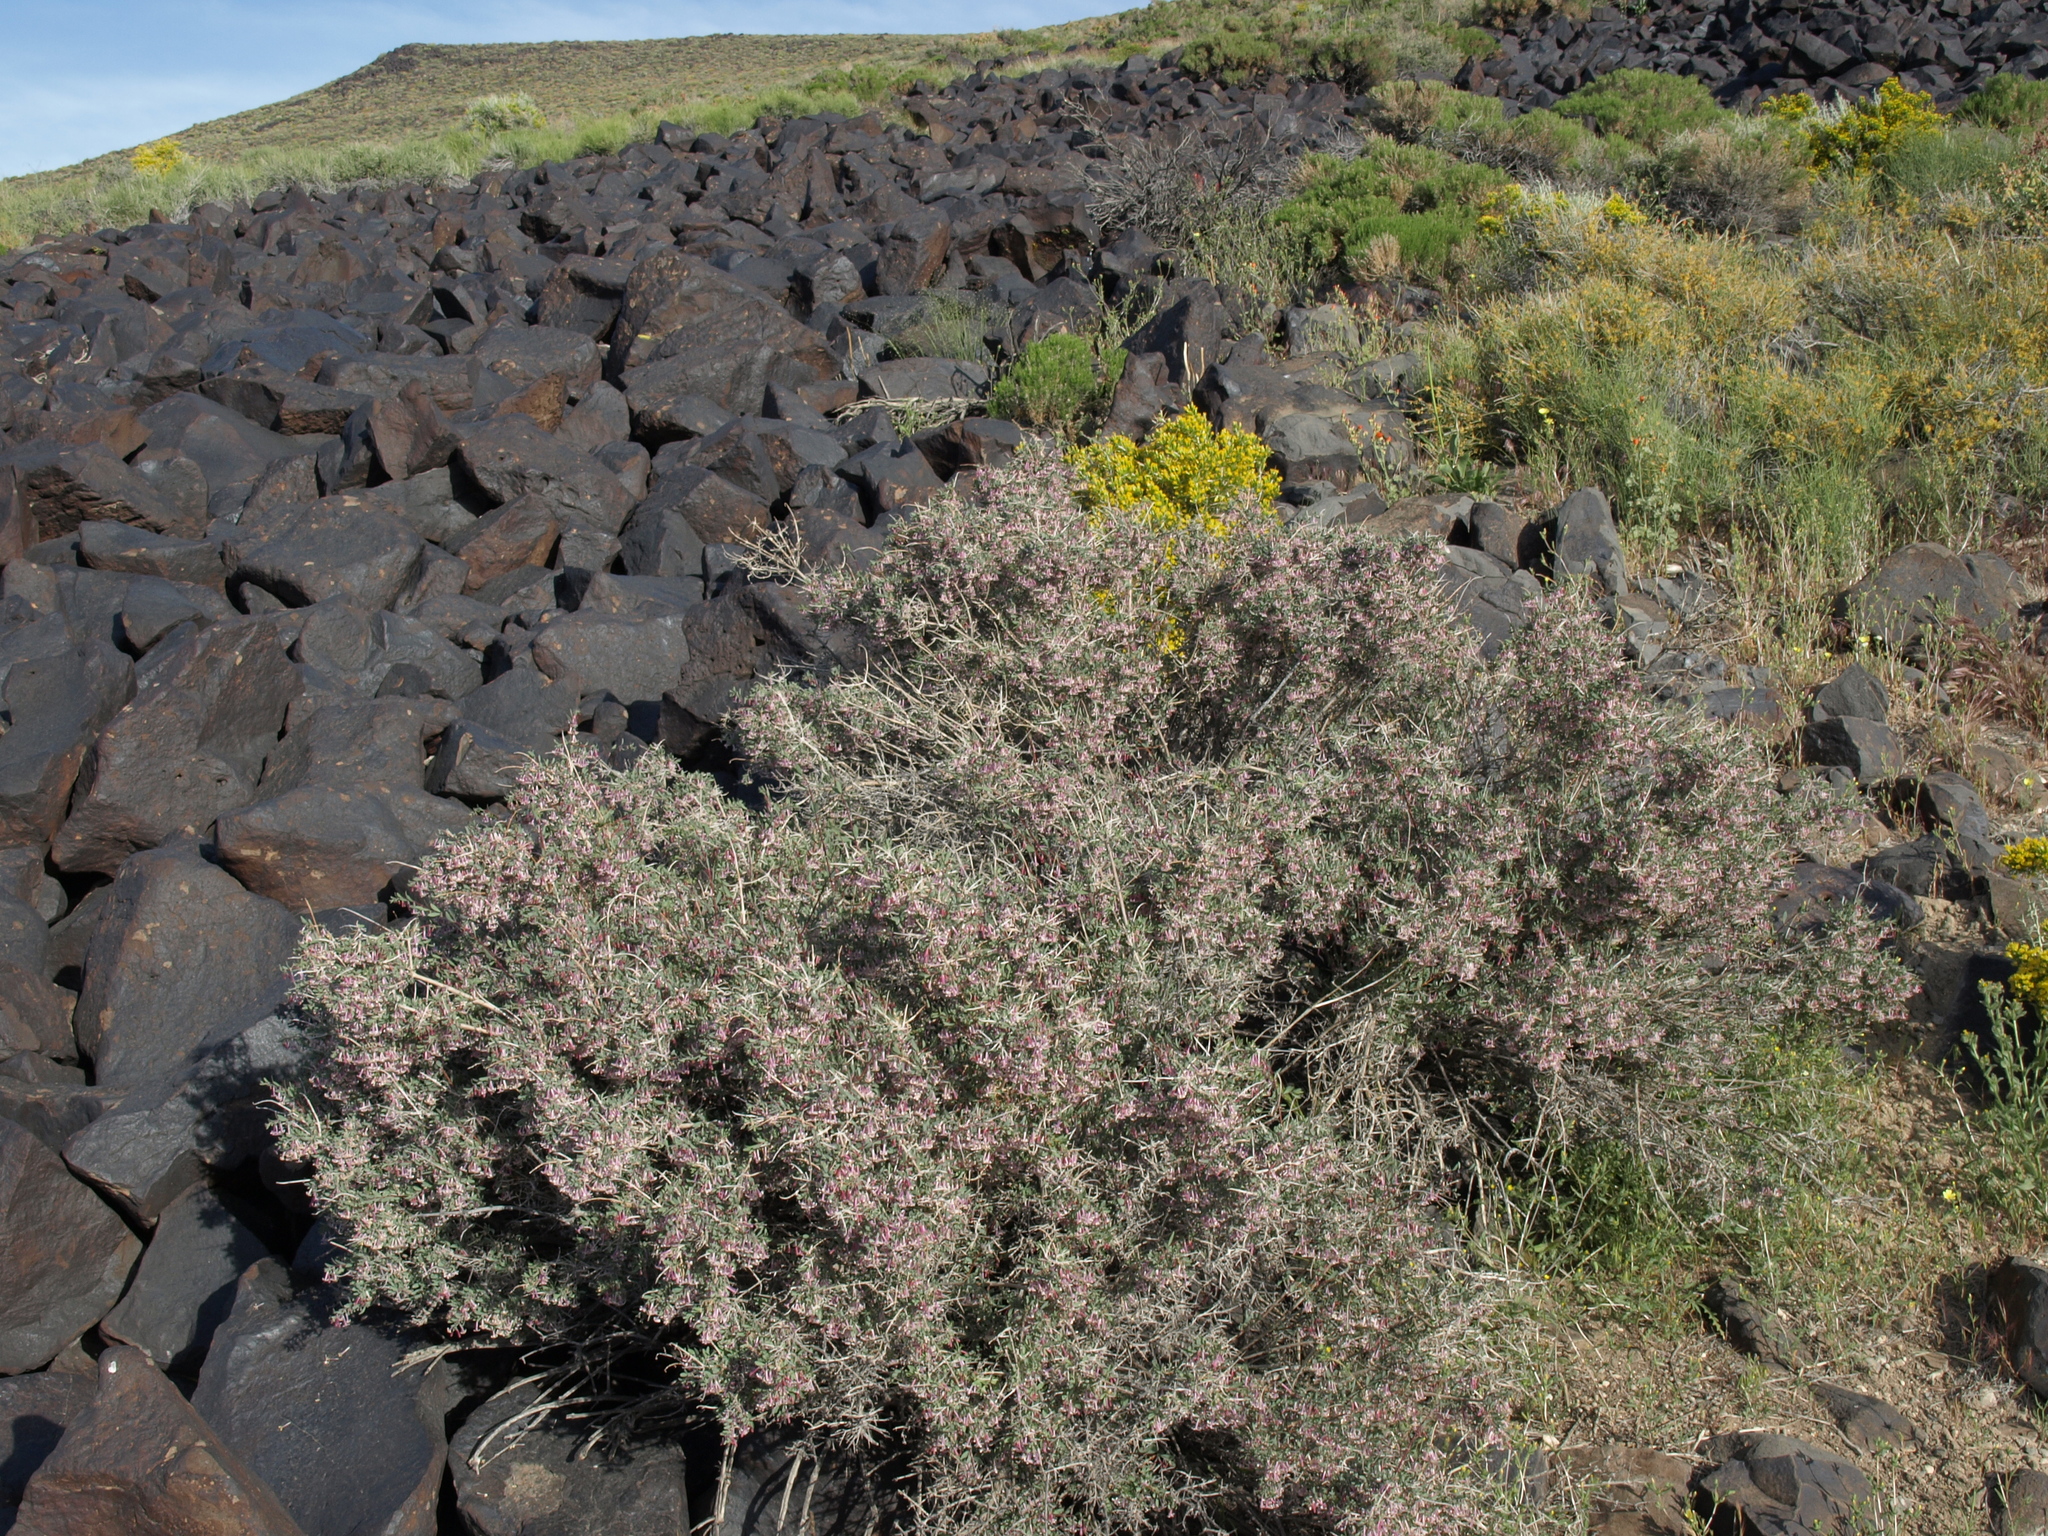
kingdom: Plantae
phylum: Tracheophyta
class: Magnoliopsida
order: Dipsacales
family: Caprifoliaceae
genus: Symphoricarpos
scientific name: Symphoricarpos longiflorus
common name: Fragrant snowberry
